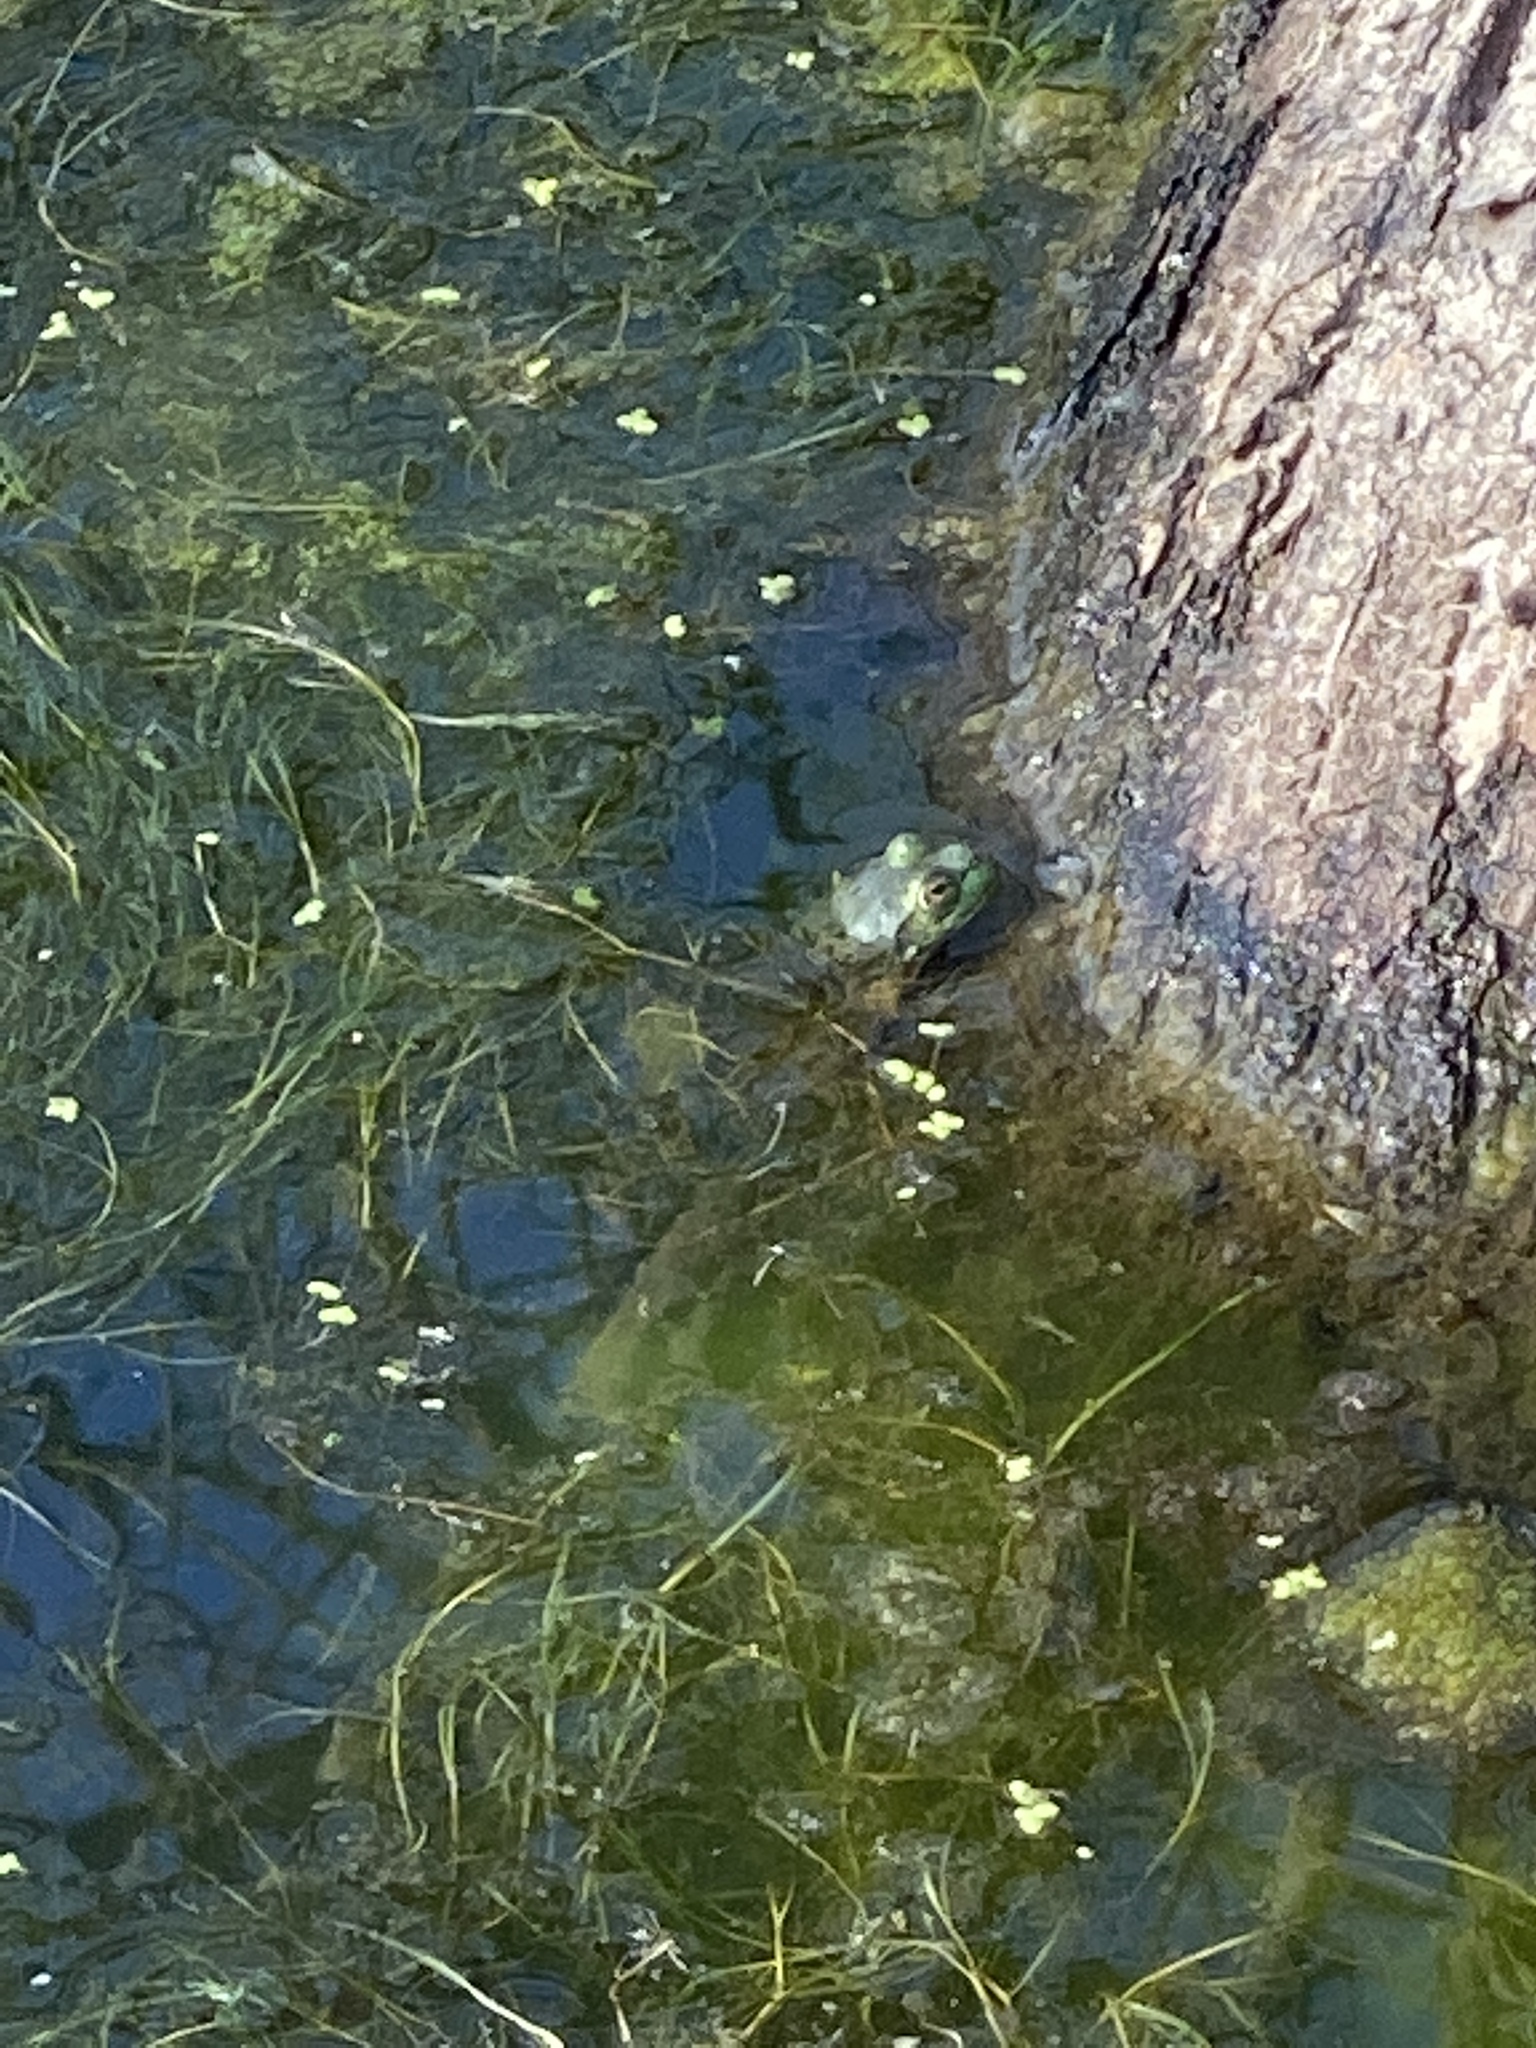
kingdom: Animalia
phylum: Chordata
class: Amphibia
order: Anura
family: Ranidae
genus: Lithobates
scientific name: Lithobates catesbeianus
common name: American bullfrog
